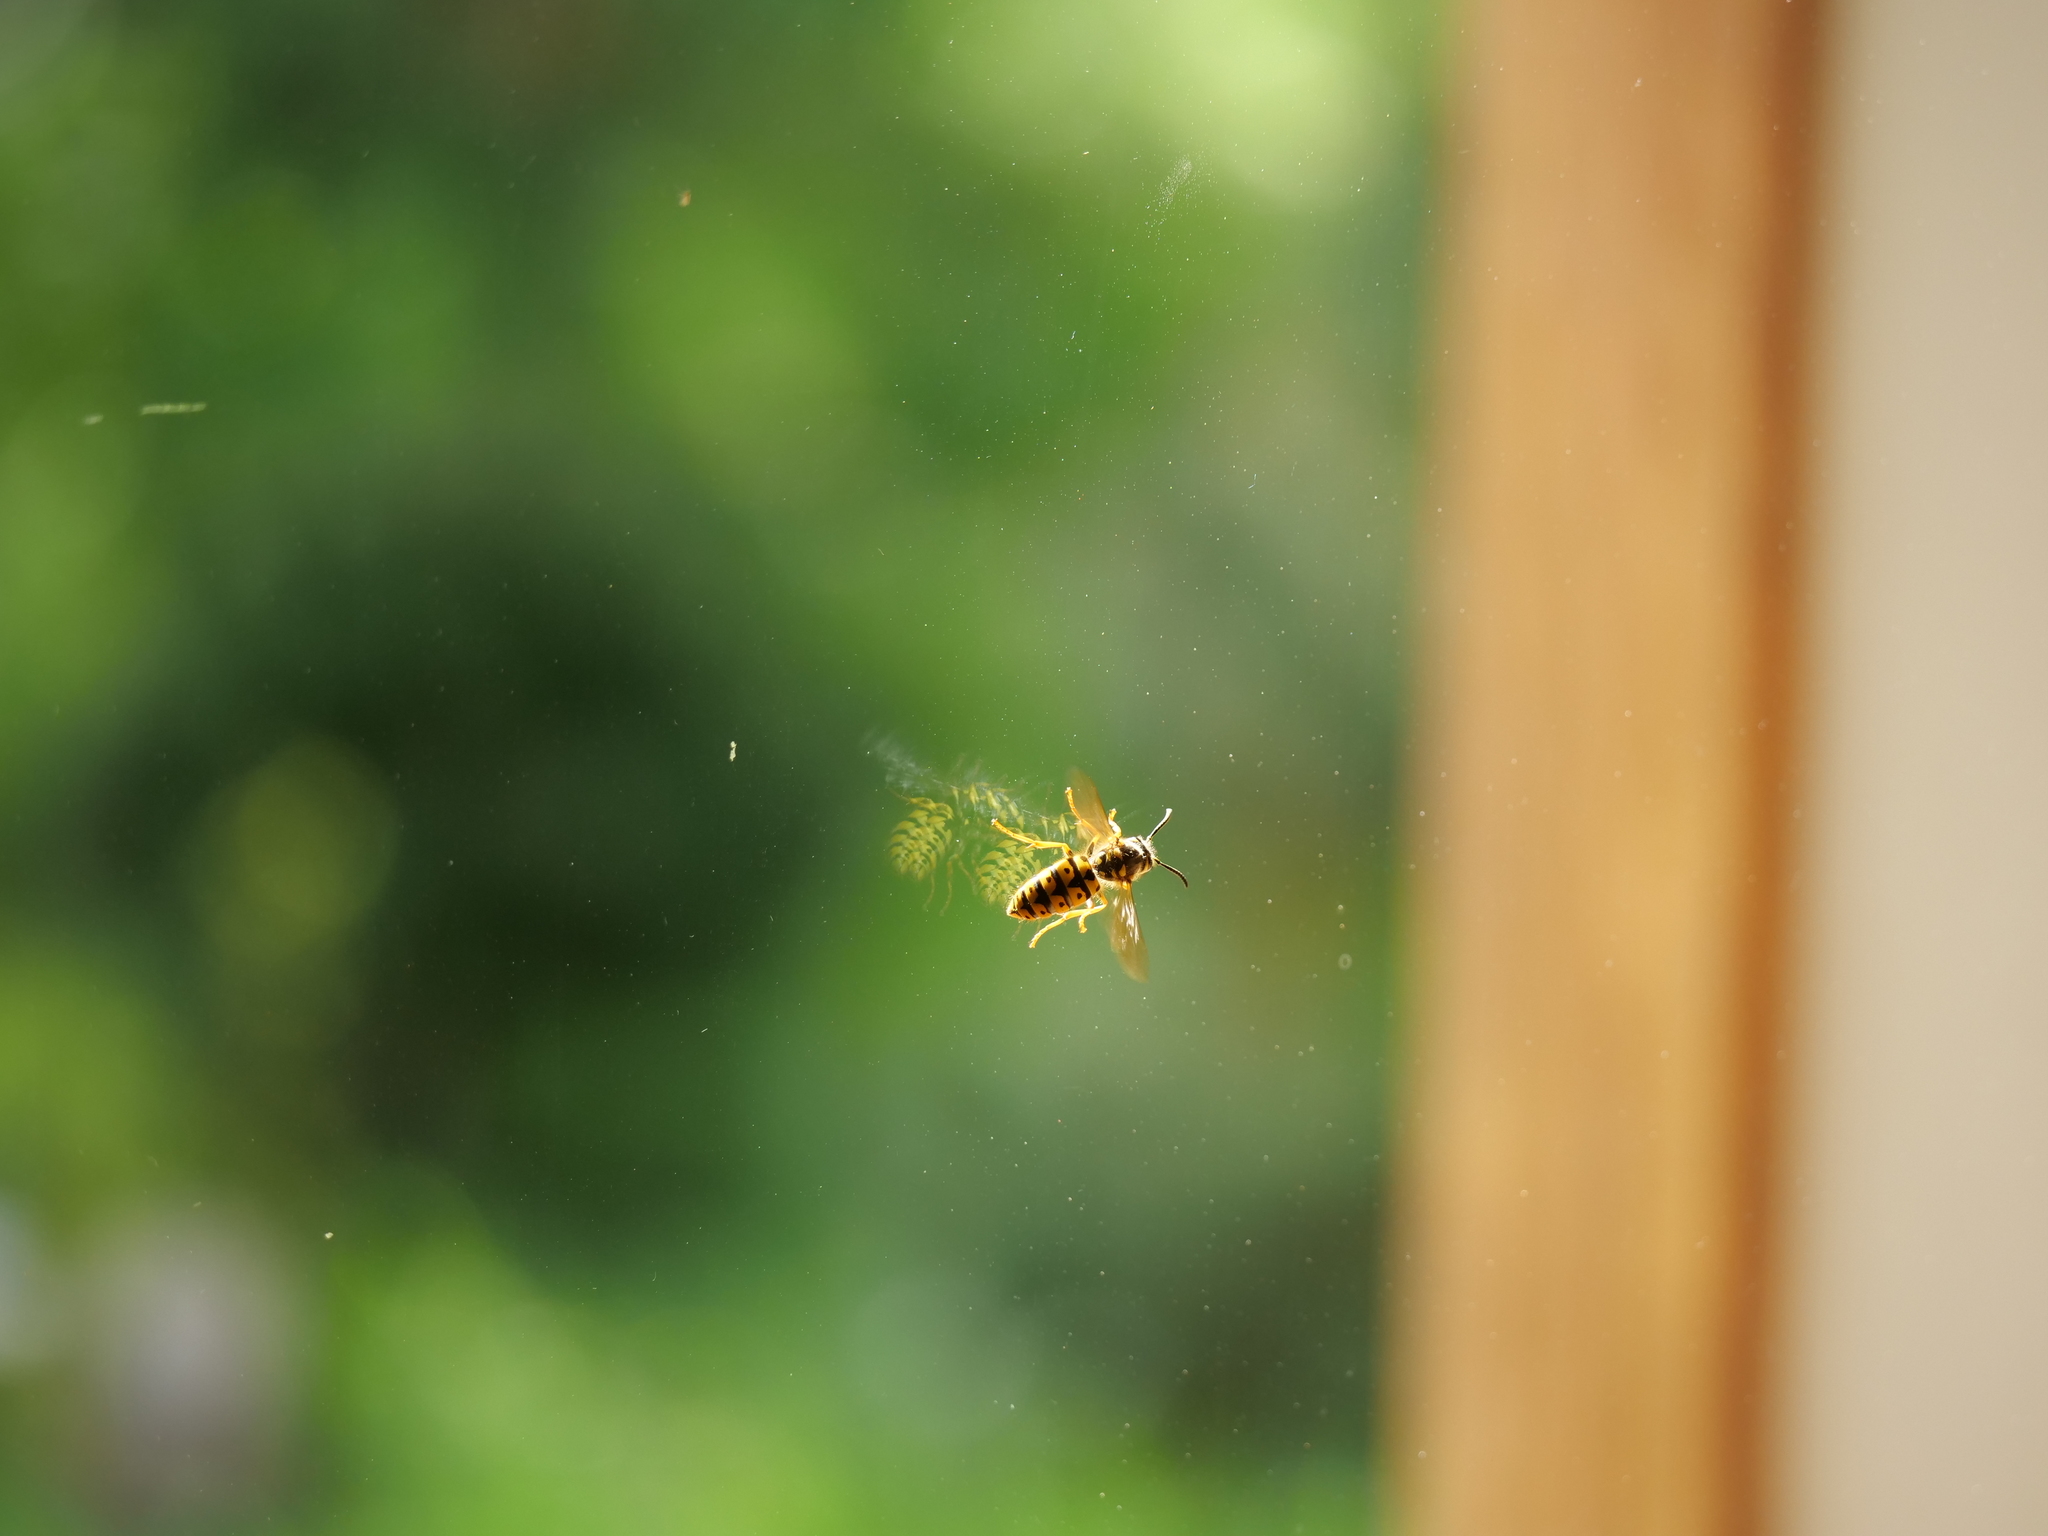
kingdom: Animalia
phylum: Arthropoda
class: Insecta
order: Hymenoptera
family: Vespidae
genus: Vespula
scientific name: Vespula pensylvanica
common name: Western yellowjacket
